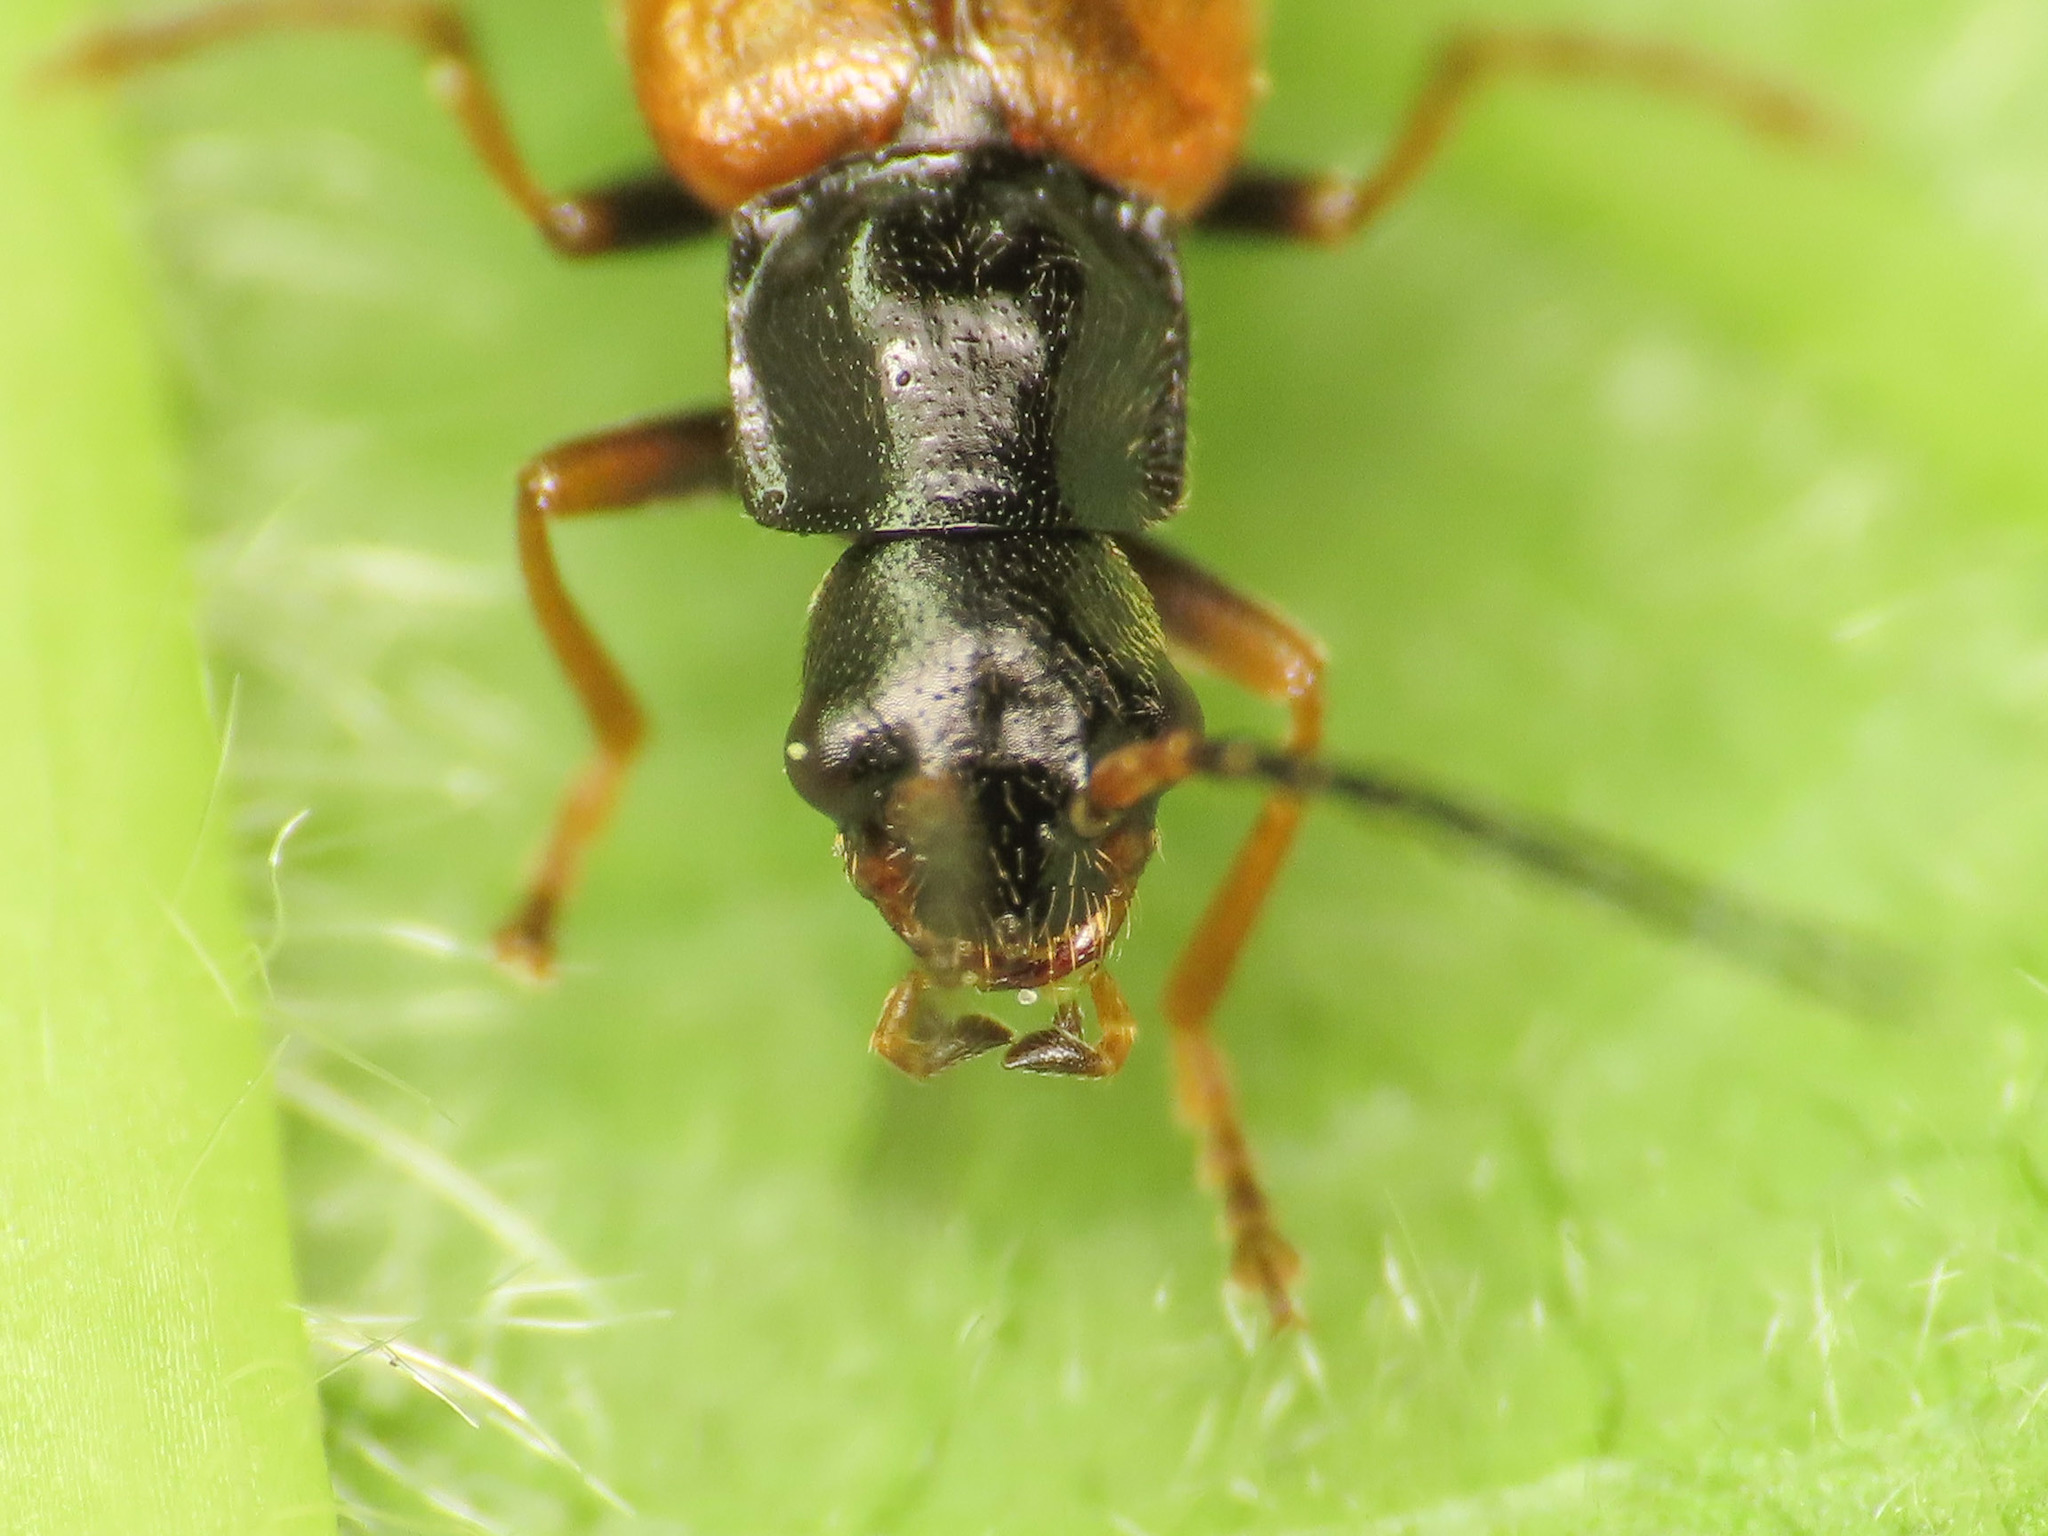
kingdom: Animalia
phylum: Arthropoda
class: Insecta
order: Coleoptera
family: Cantharidae
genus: Rhagonycha
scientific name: Rhagonycha fuscitibia
